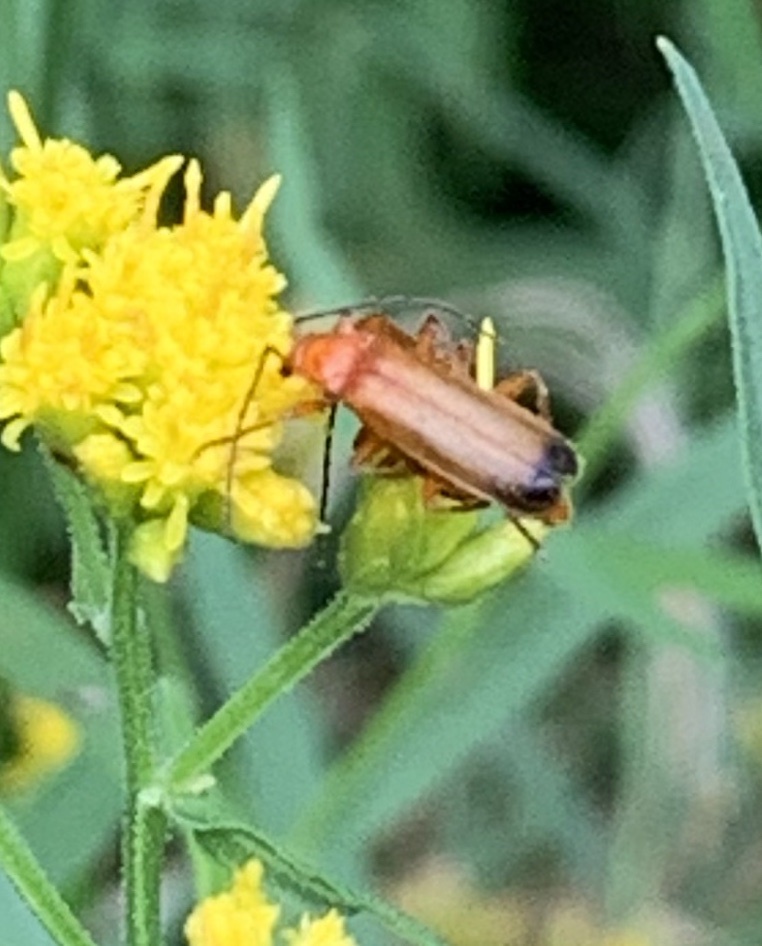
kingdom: Animalia
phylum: Arthropoda
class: Insecta
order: Coleoptera
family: Cantharidae
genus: Rhagonycha
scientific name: Rhagonycha fulva
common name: Common red soldier beetle
